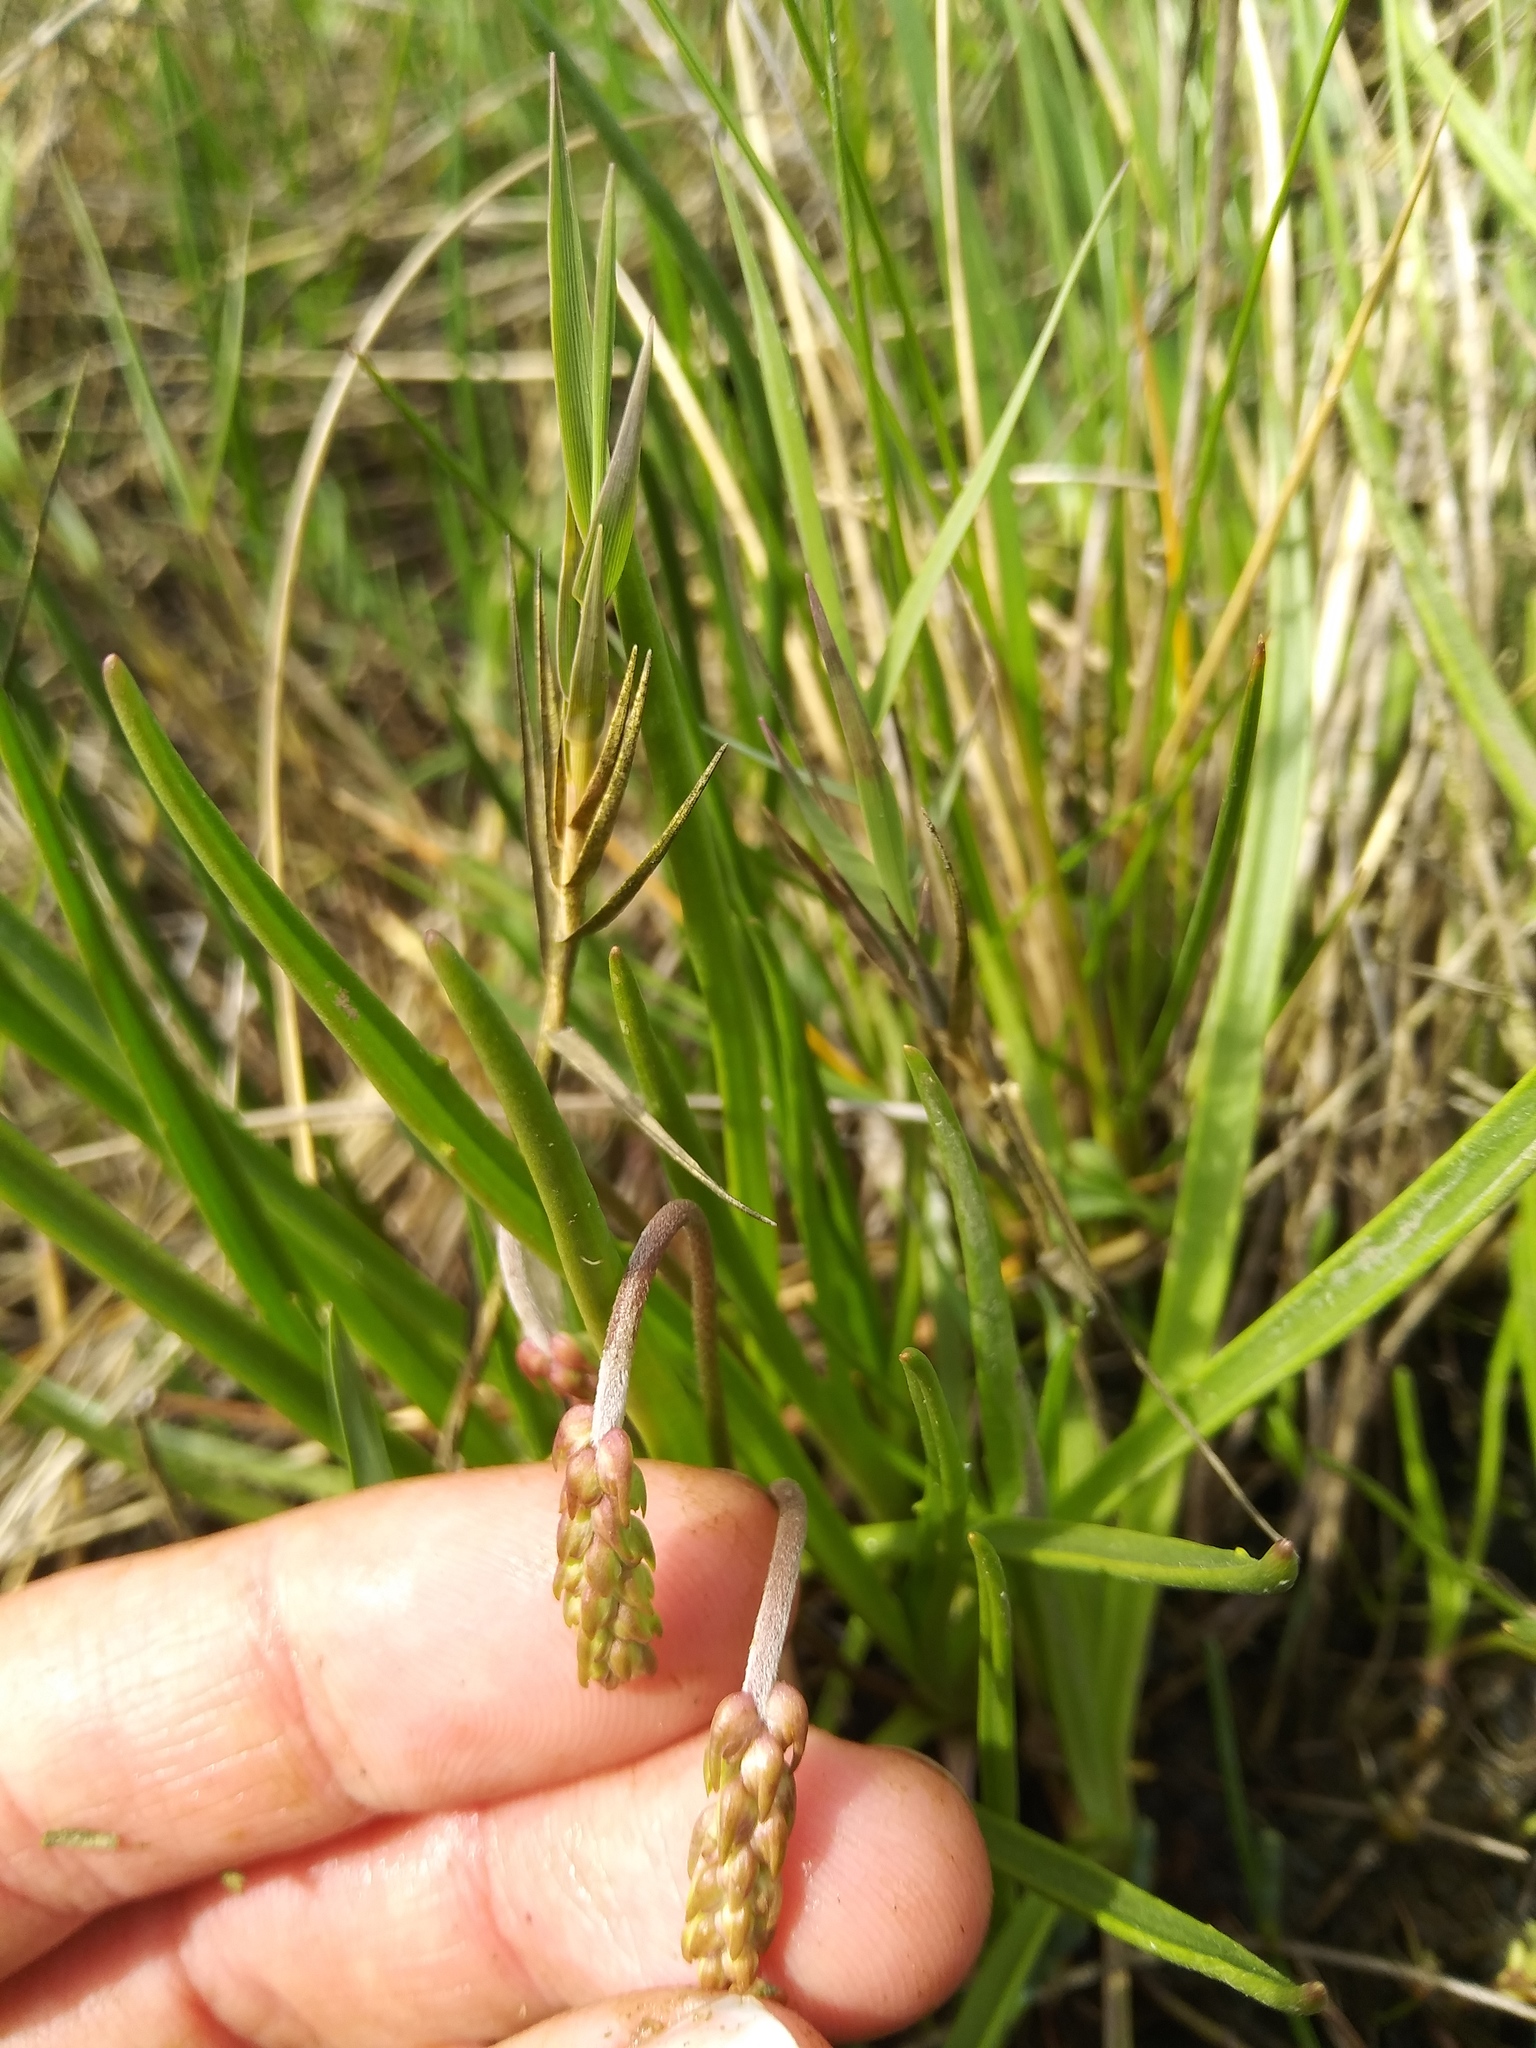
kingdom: Plantae
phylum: Tracheophyta
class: Magnoliopsida
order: Lamiales
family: Plantaginaceae
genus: Plantago
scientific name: Plantago maritima
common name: Sea plantain
